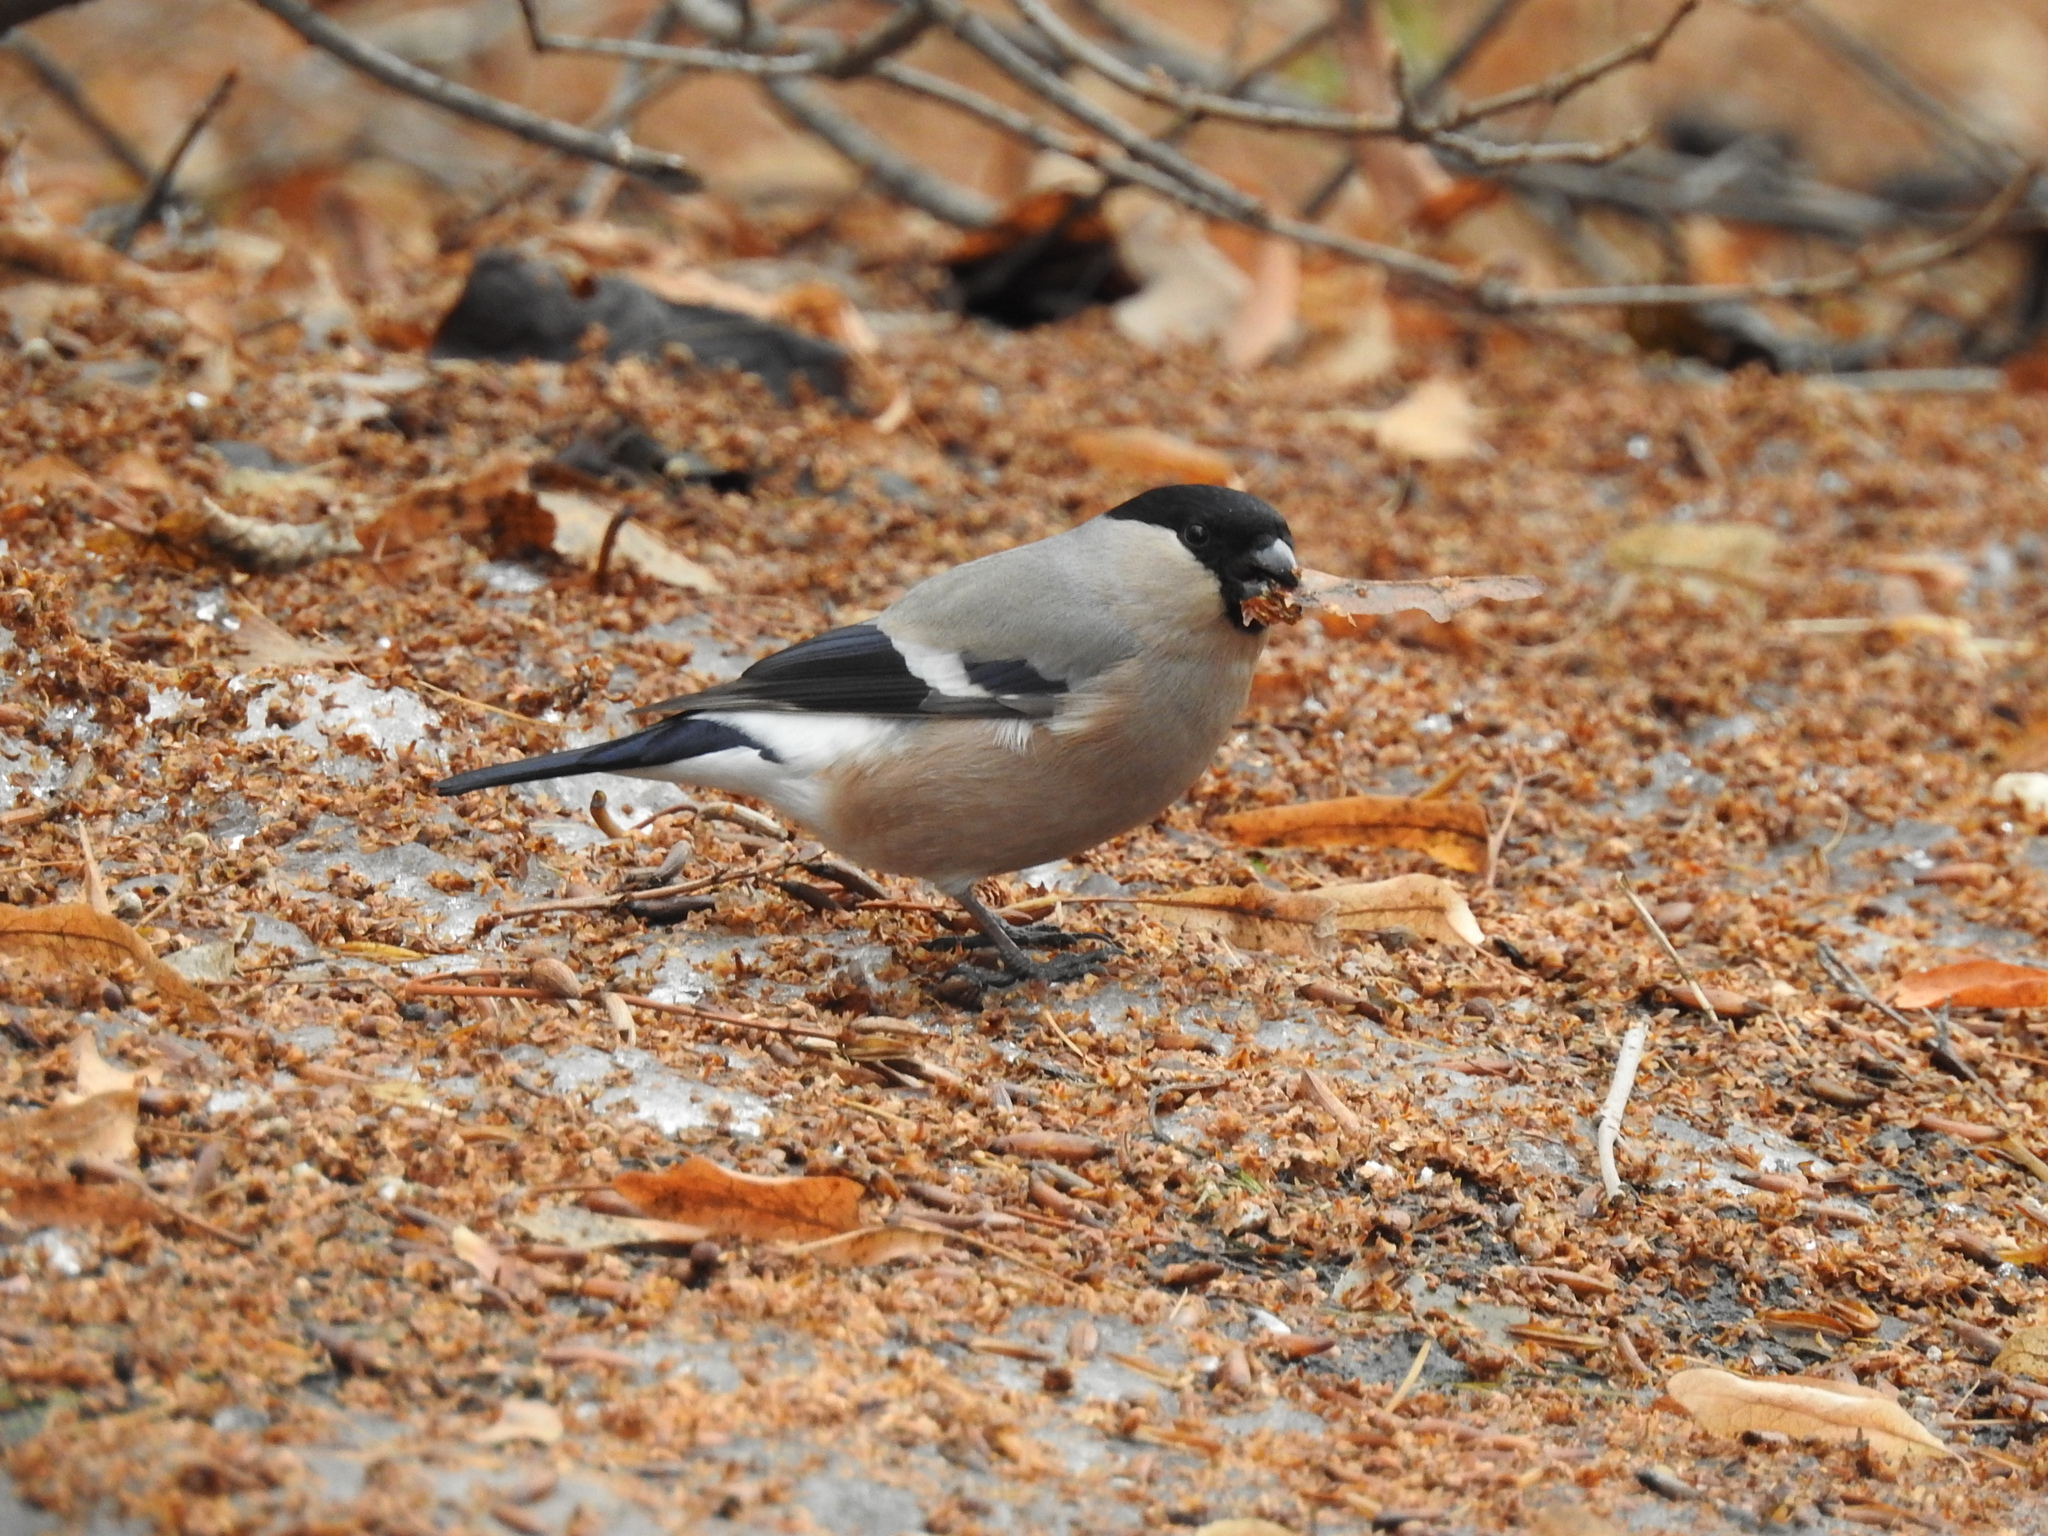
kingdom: Animalia
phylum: Chordata
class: Aves
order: Passeriformes
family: Fringillidae
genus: Pyrrhula
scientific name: Pyrrhula pyrrhula
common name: Eurasian bullfinch
